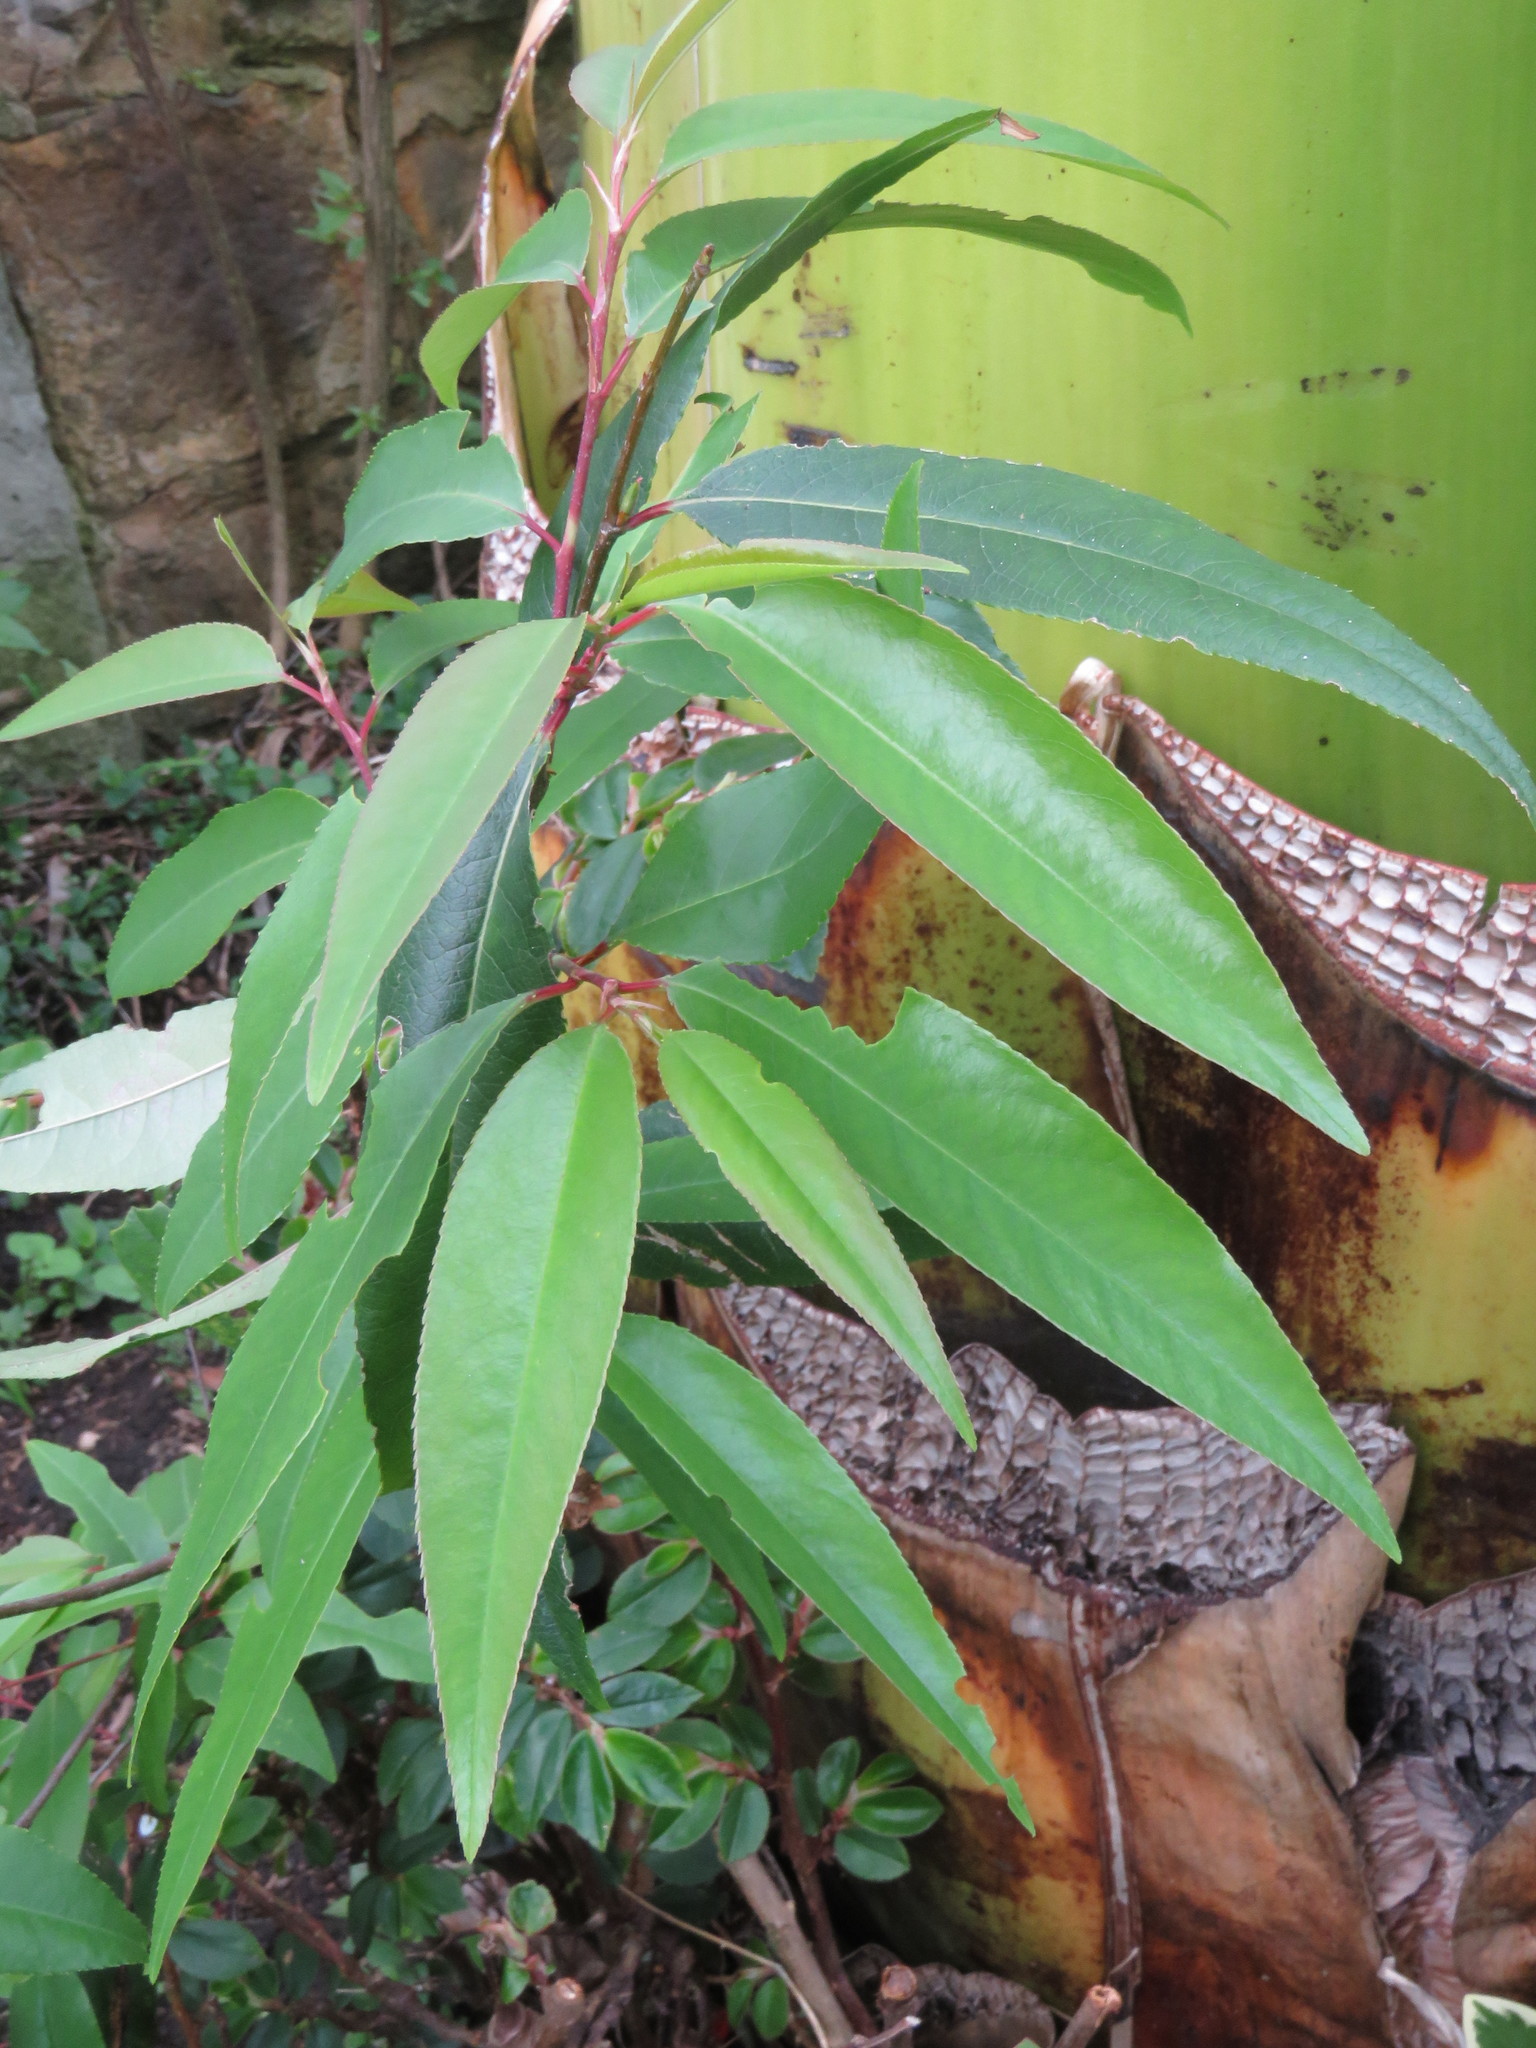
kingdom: Plantae
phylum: Tracheophyta
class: Magnoliopsida
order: Rosales
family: Rosaceae
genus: Prunus
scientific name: Prunus serotina
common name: Black cherry
